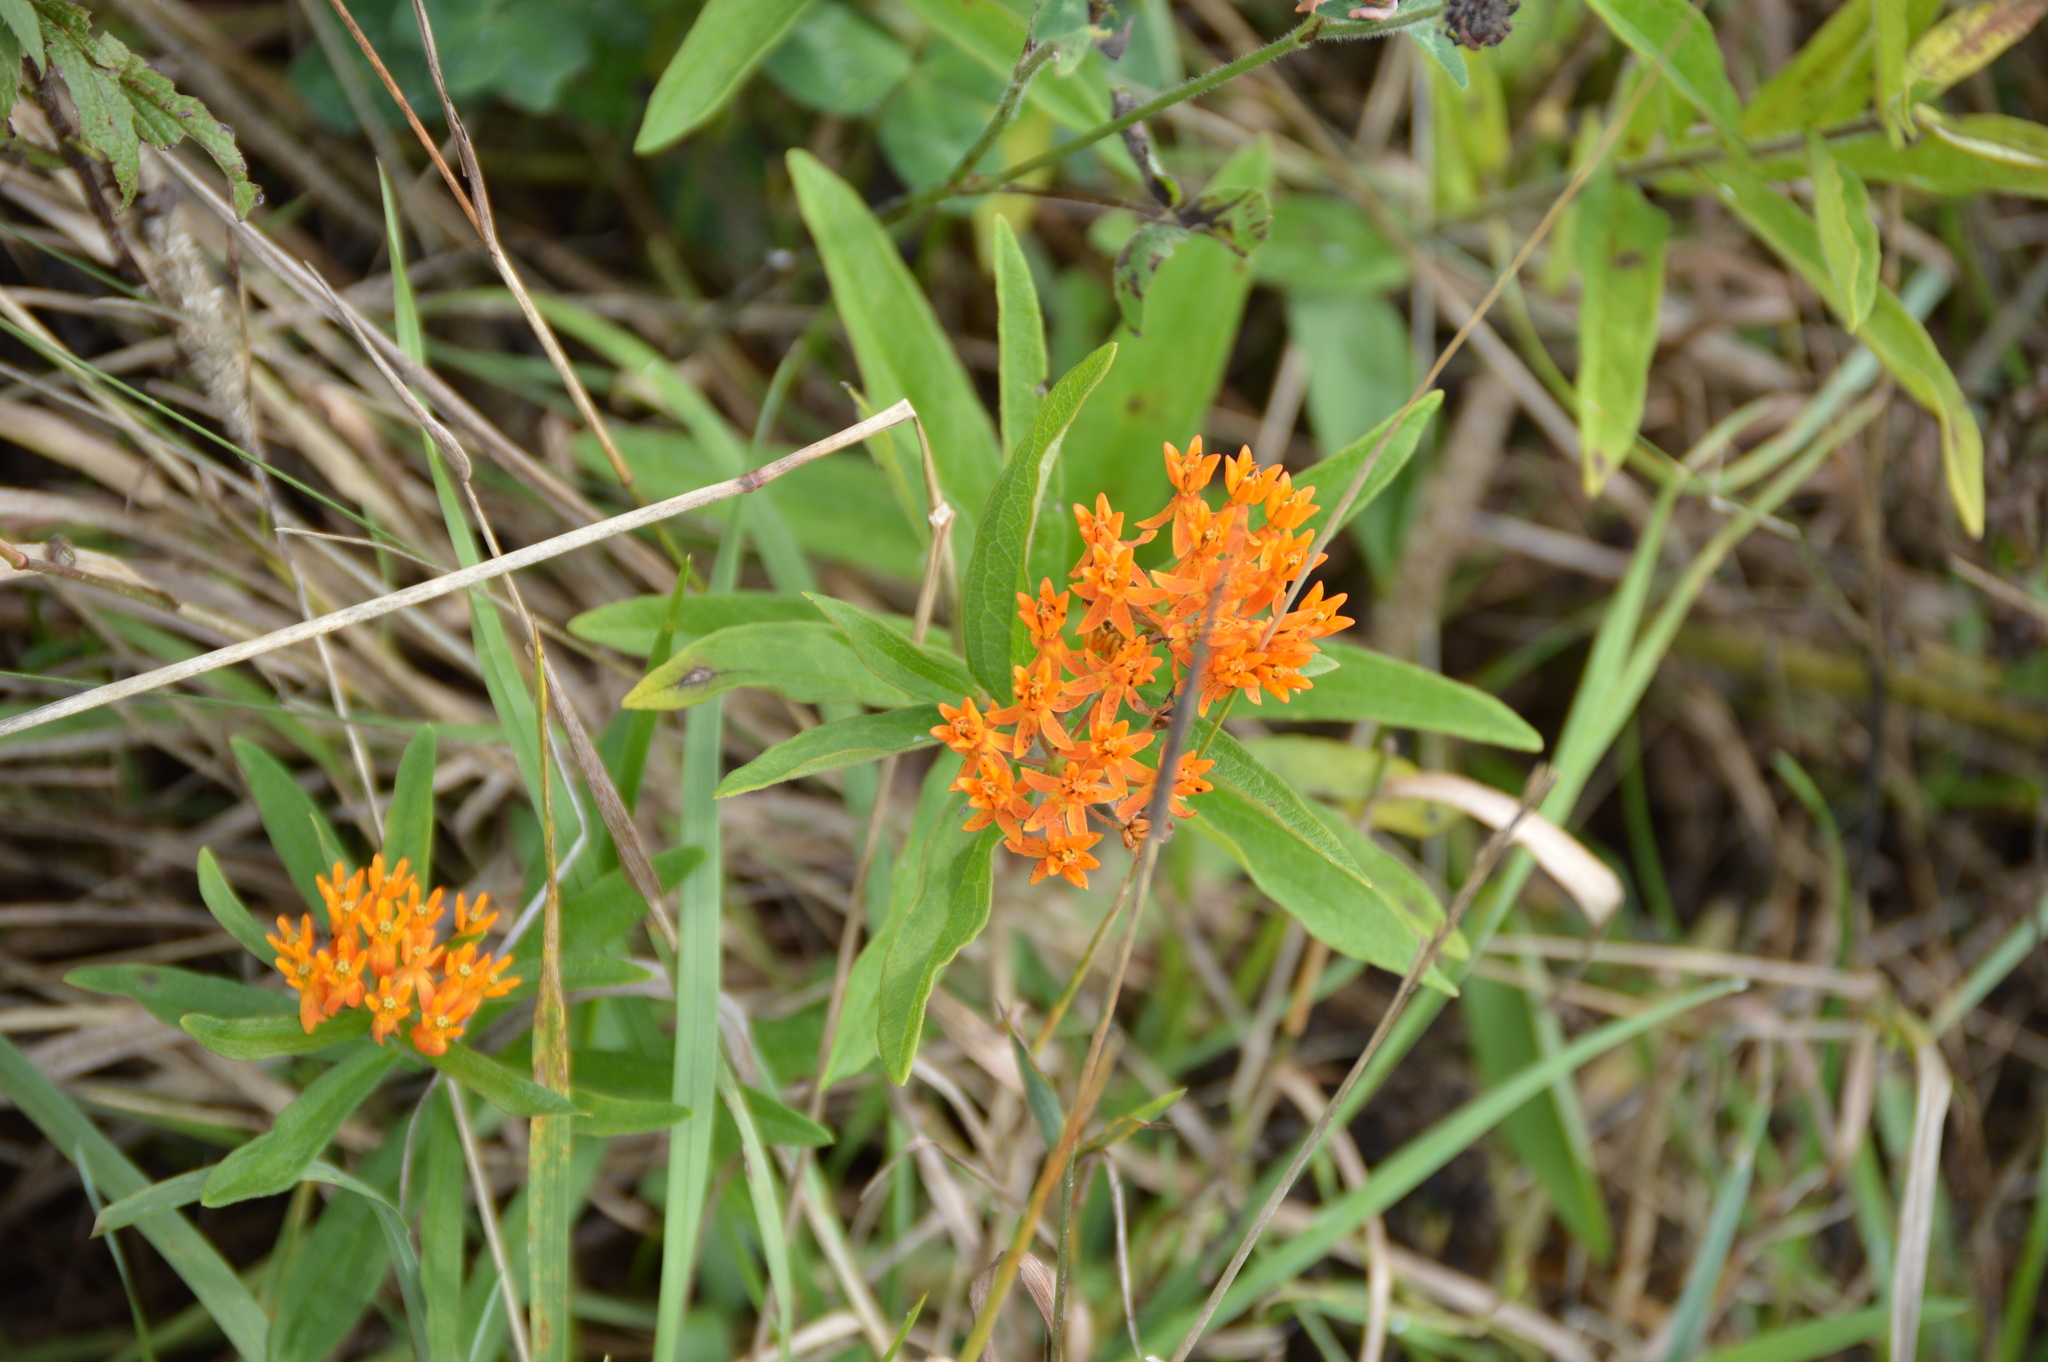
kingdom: Plantae
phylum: Tracheophyta
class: Magnoliopsida
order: Gentianales
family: Apocynaceae
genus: Asclepias
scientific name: Asclepias tuberosa
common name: Butterfly milkweed
